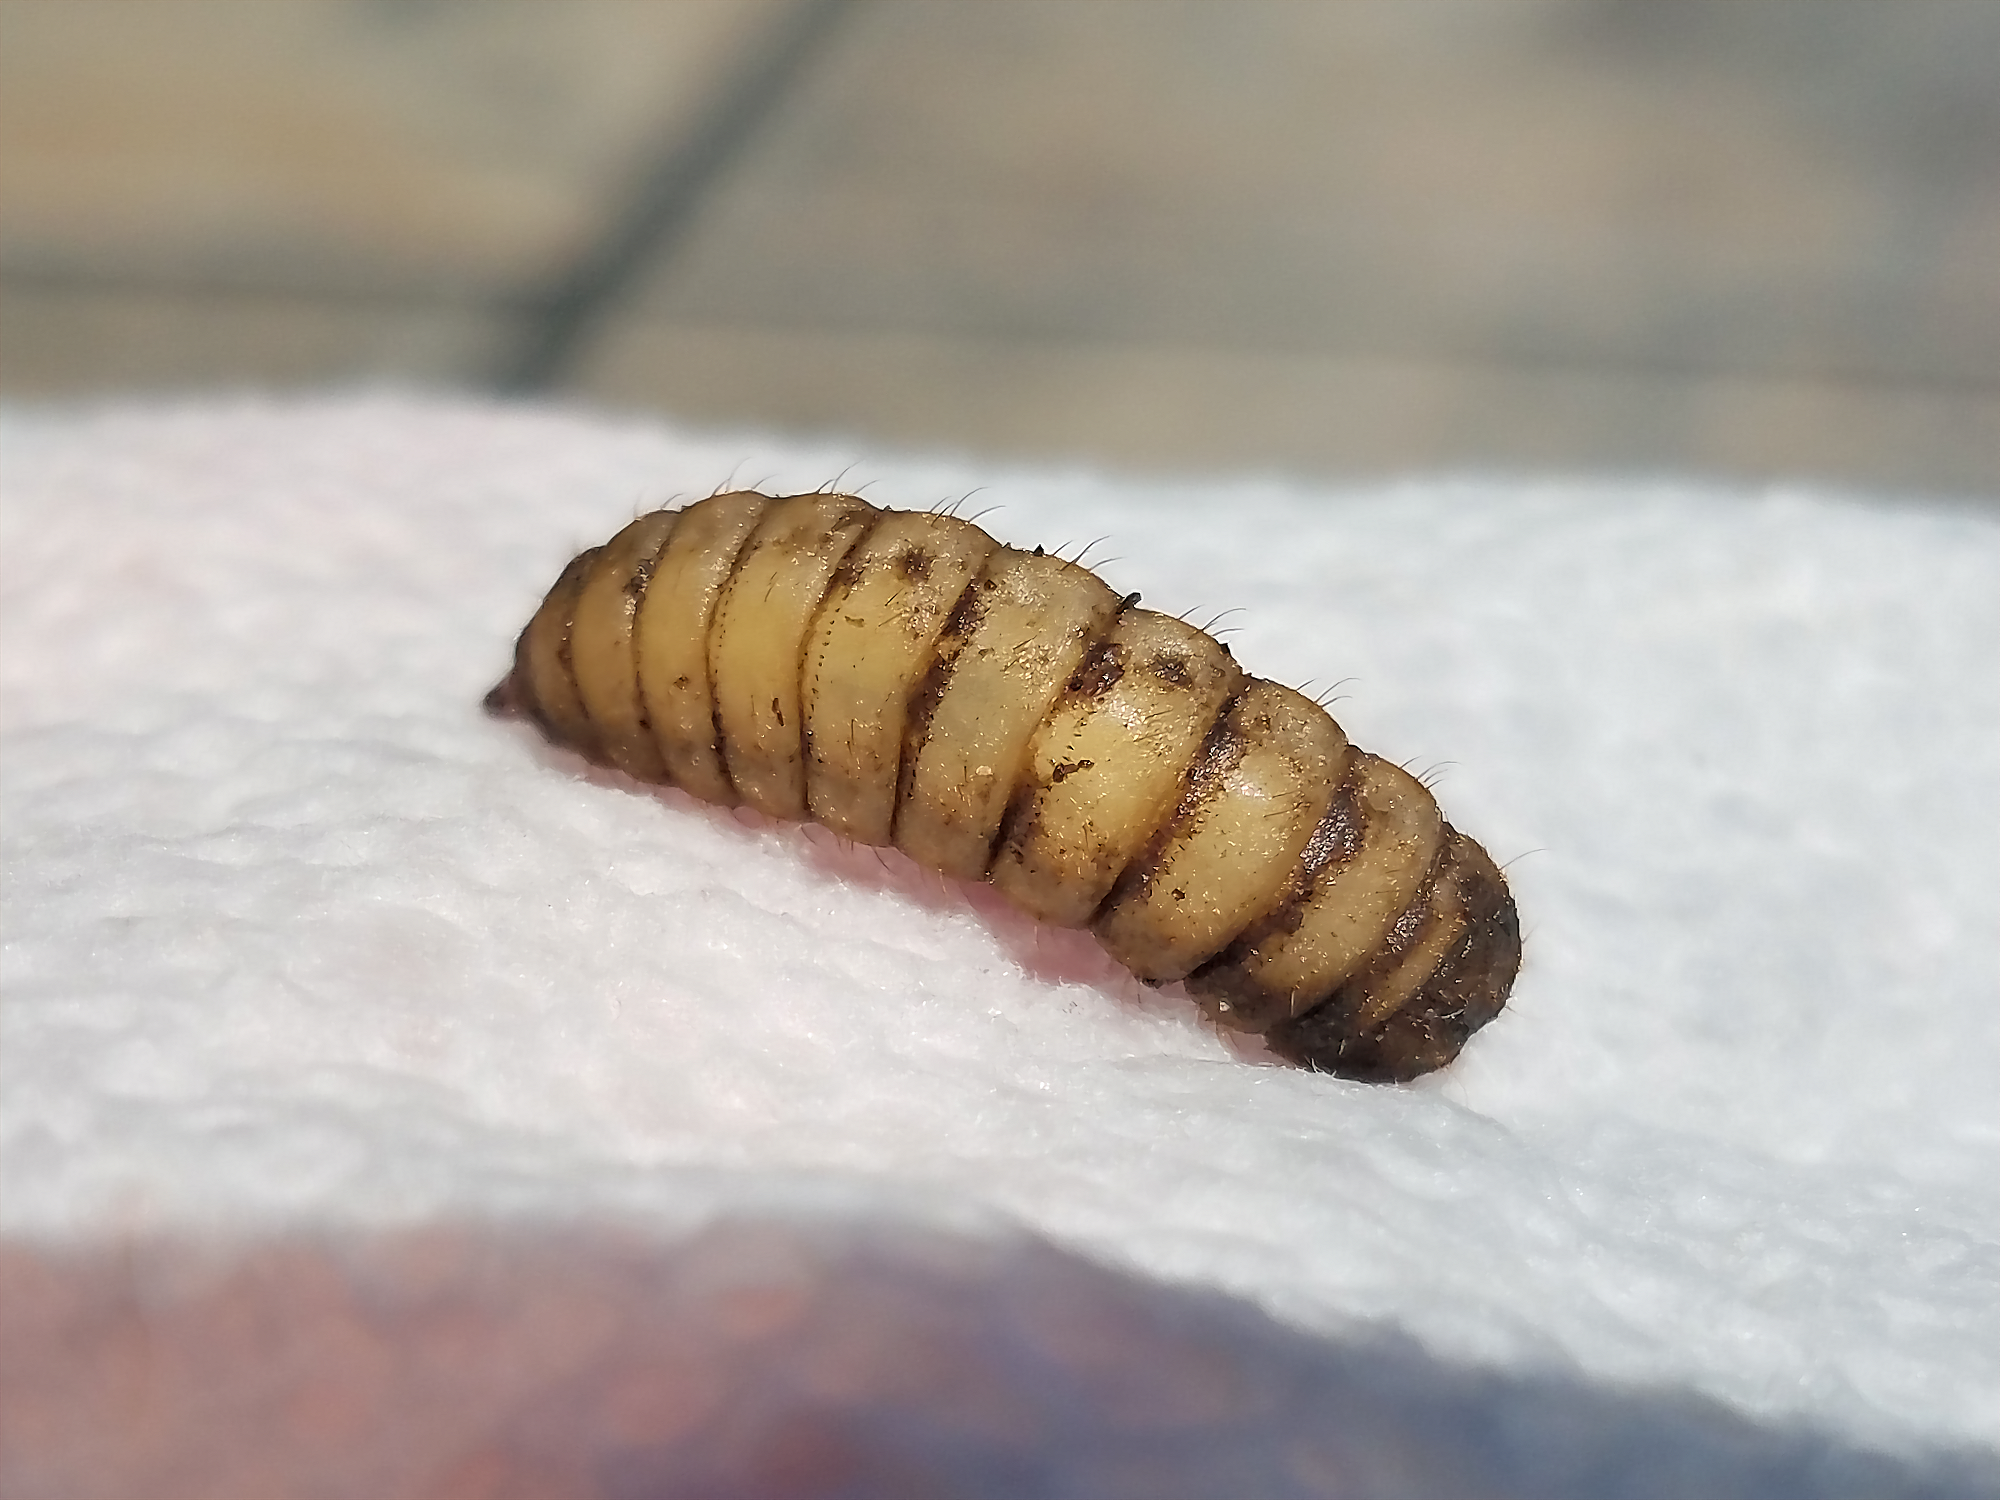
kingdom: Animalia
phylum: Arthropoda
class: Insecta
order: Diptera
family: Stratiomyidae
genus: Hermetia
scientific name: Hermetia illucens
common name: Black soldier fly
